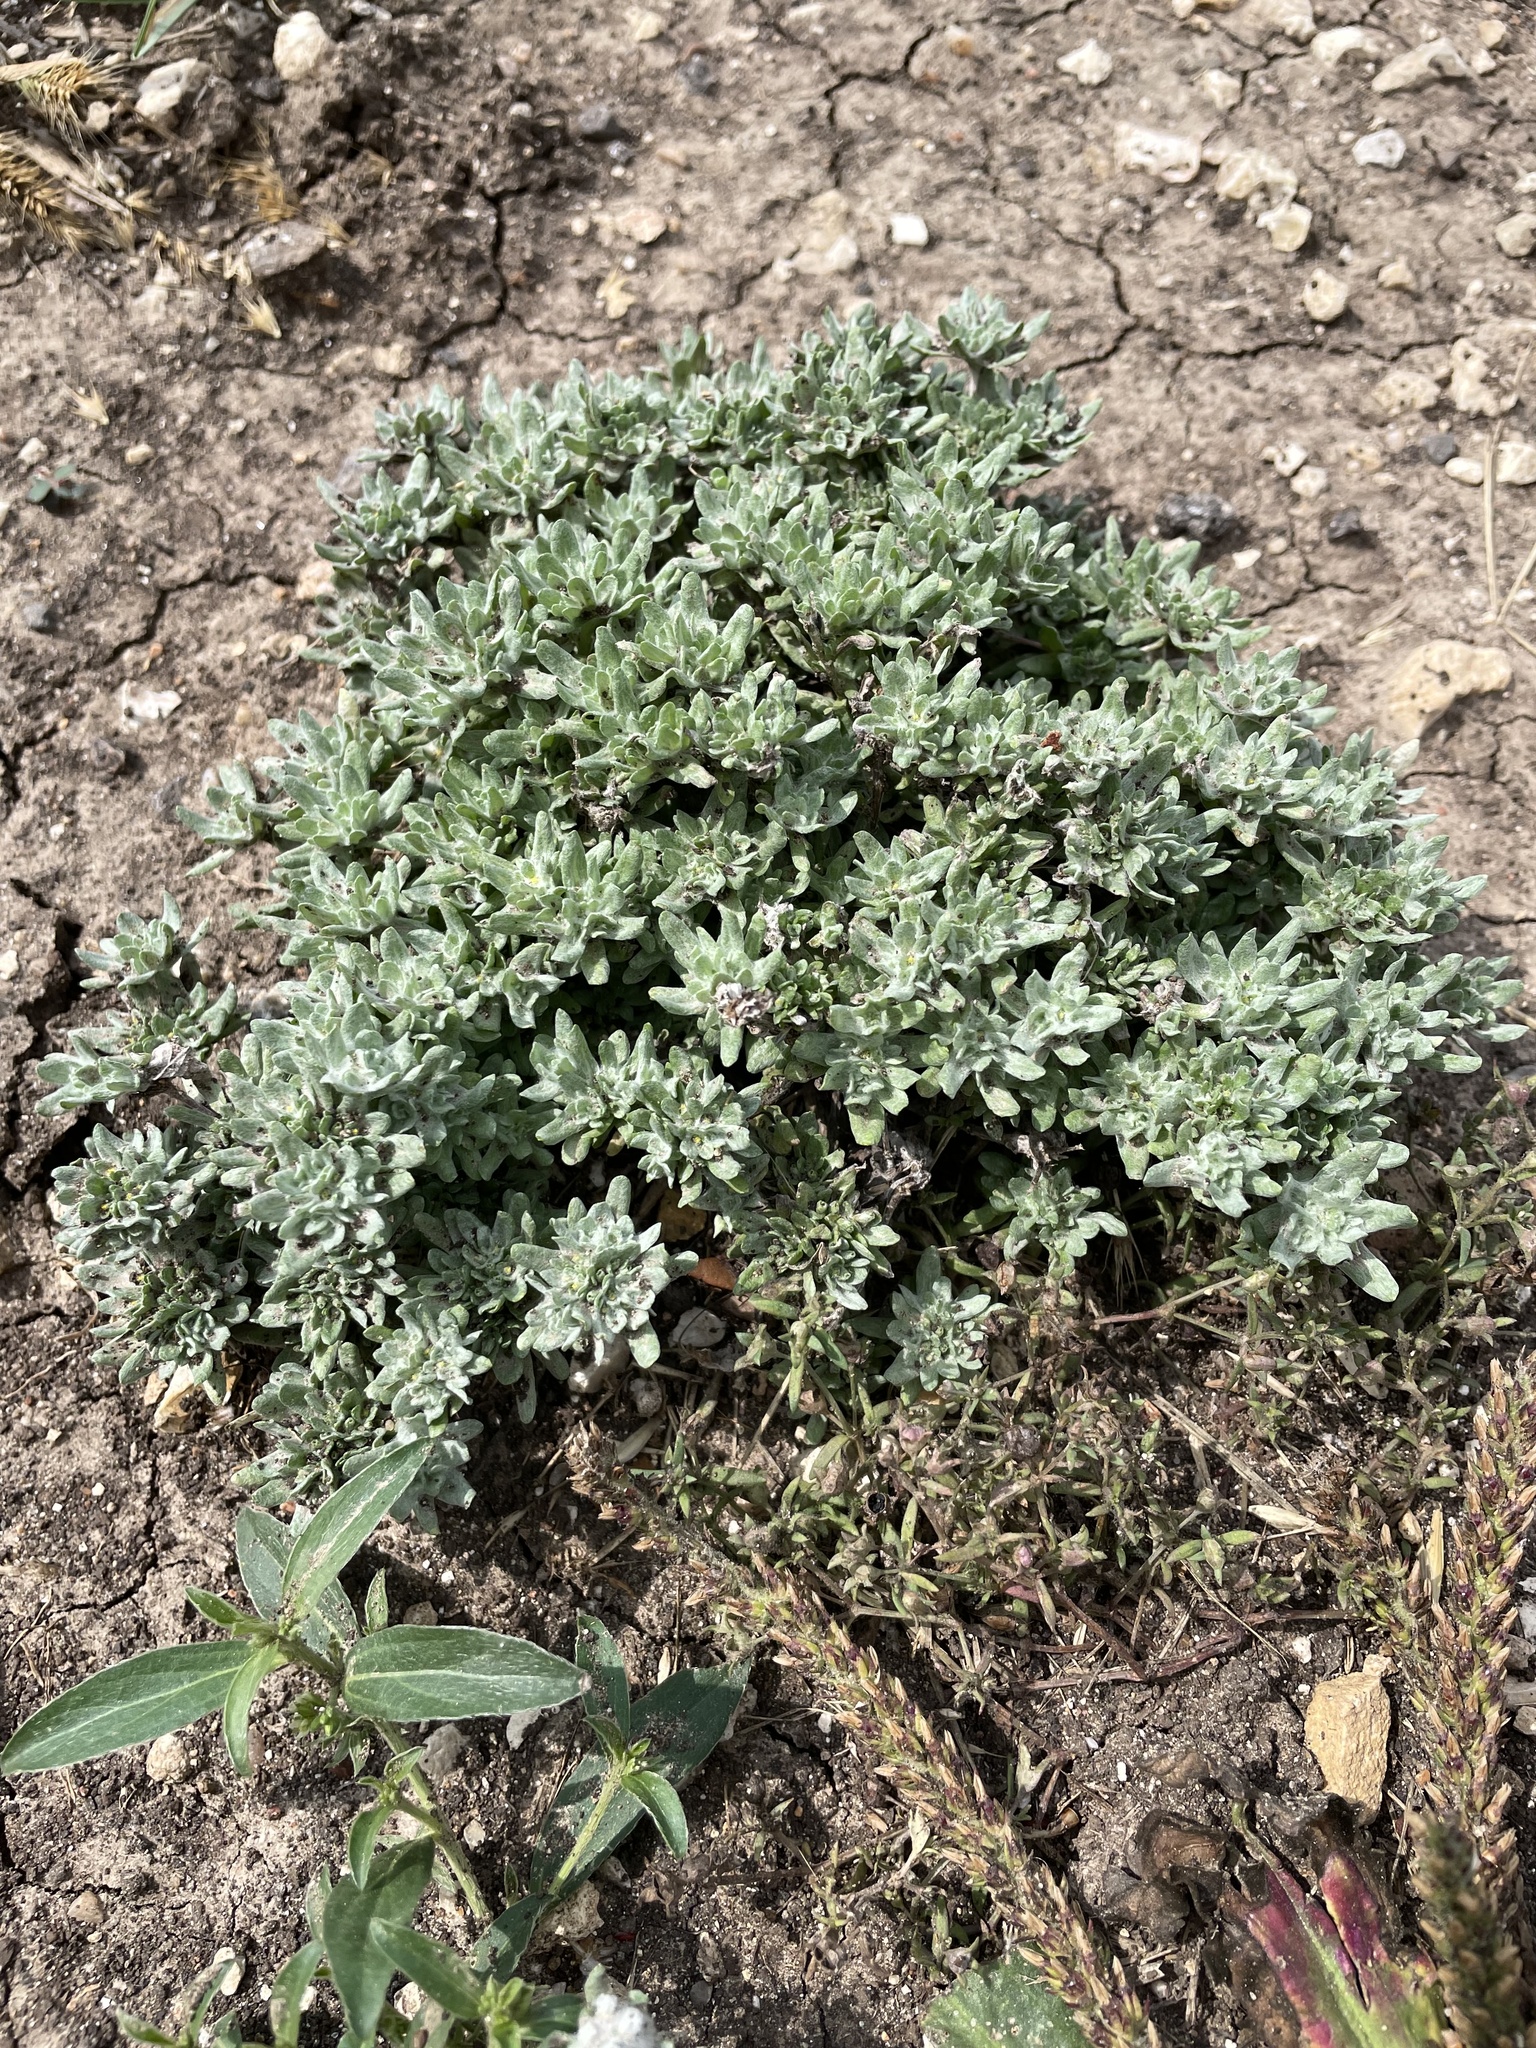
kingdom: Plantae
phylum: Tracheophyta
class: Magnoliopsida
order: Asterales
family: Asteraceae
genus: Diaperia
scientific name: Diaperia prolifera
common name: Big-head rabbit-tobacco
